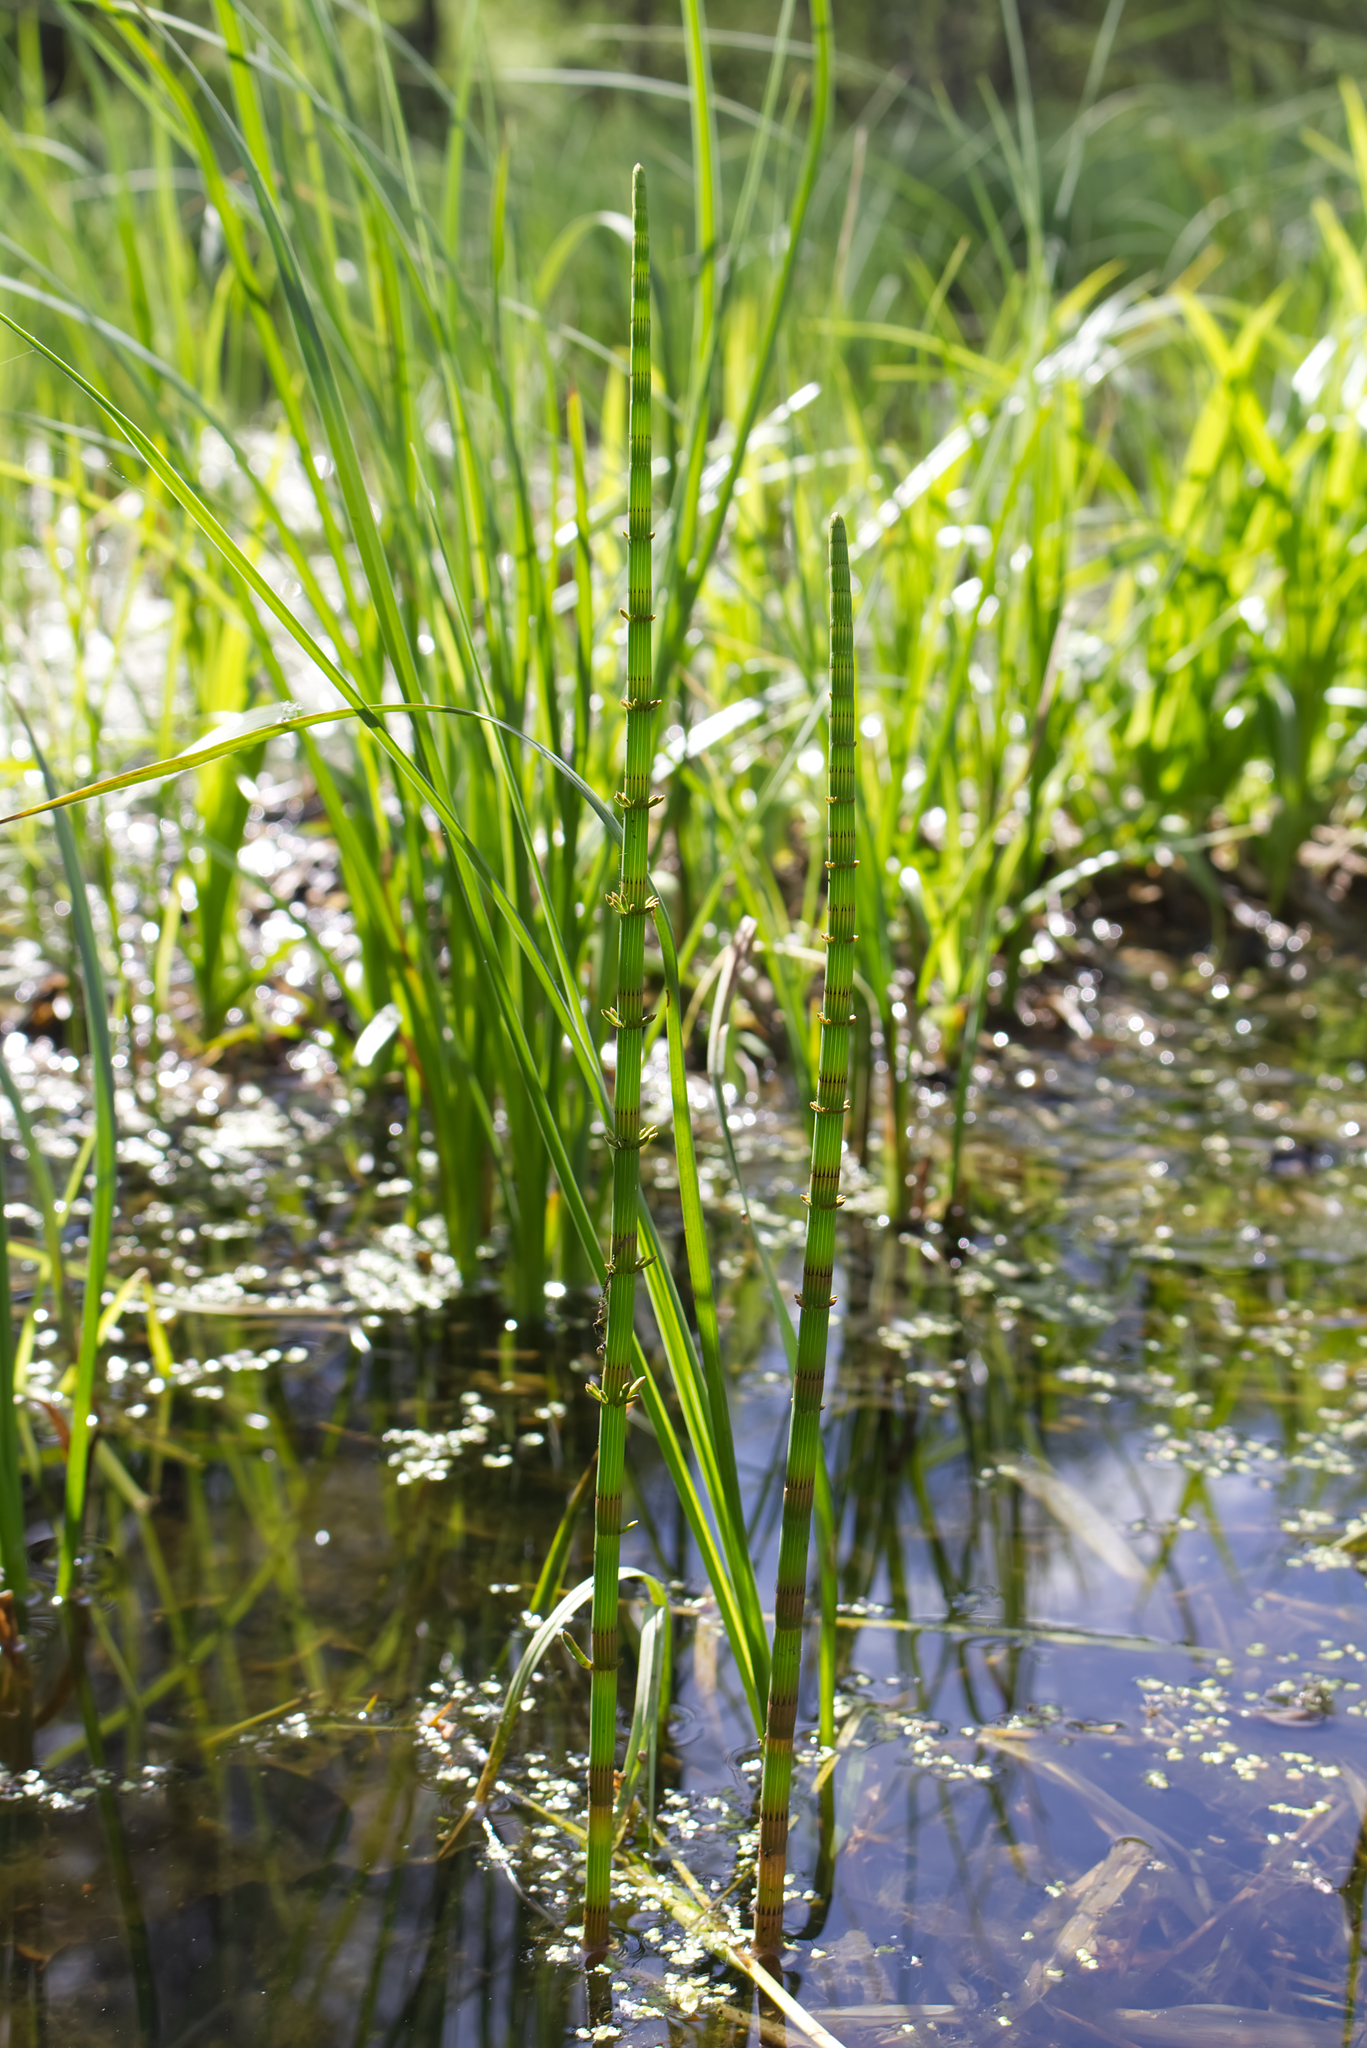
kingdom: Plantae
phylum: Tracheophyta
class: Polypodiopsida
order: Equisetales
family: Equisetaceae
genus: Equisetum
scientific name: Equisetum fluviatile
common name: Water horsetail
